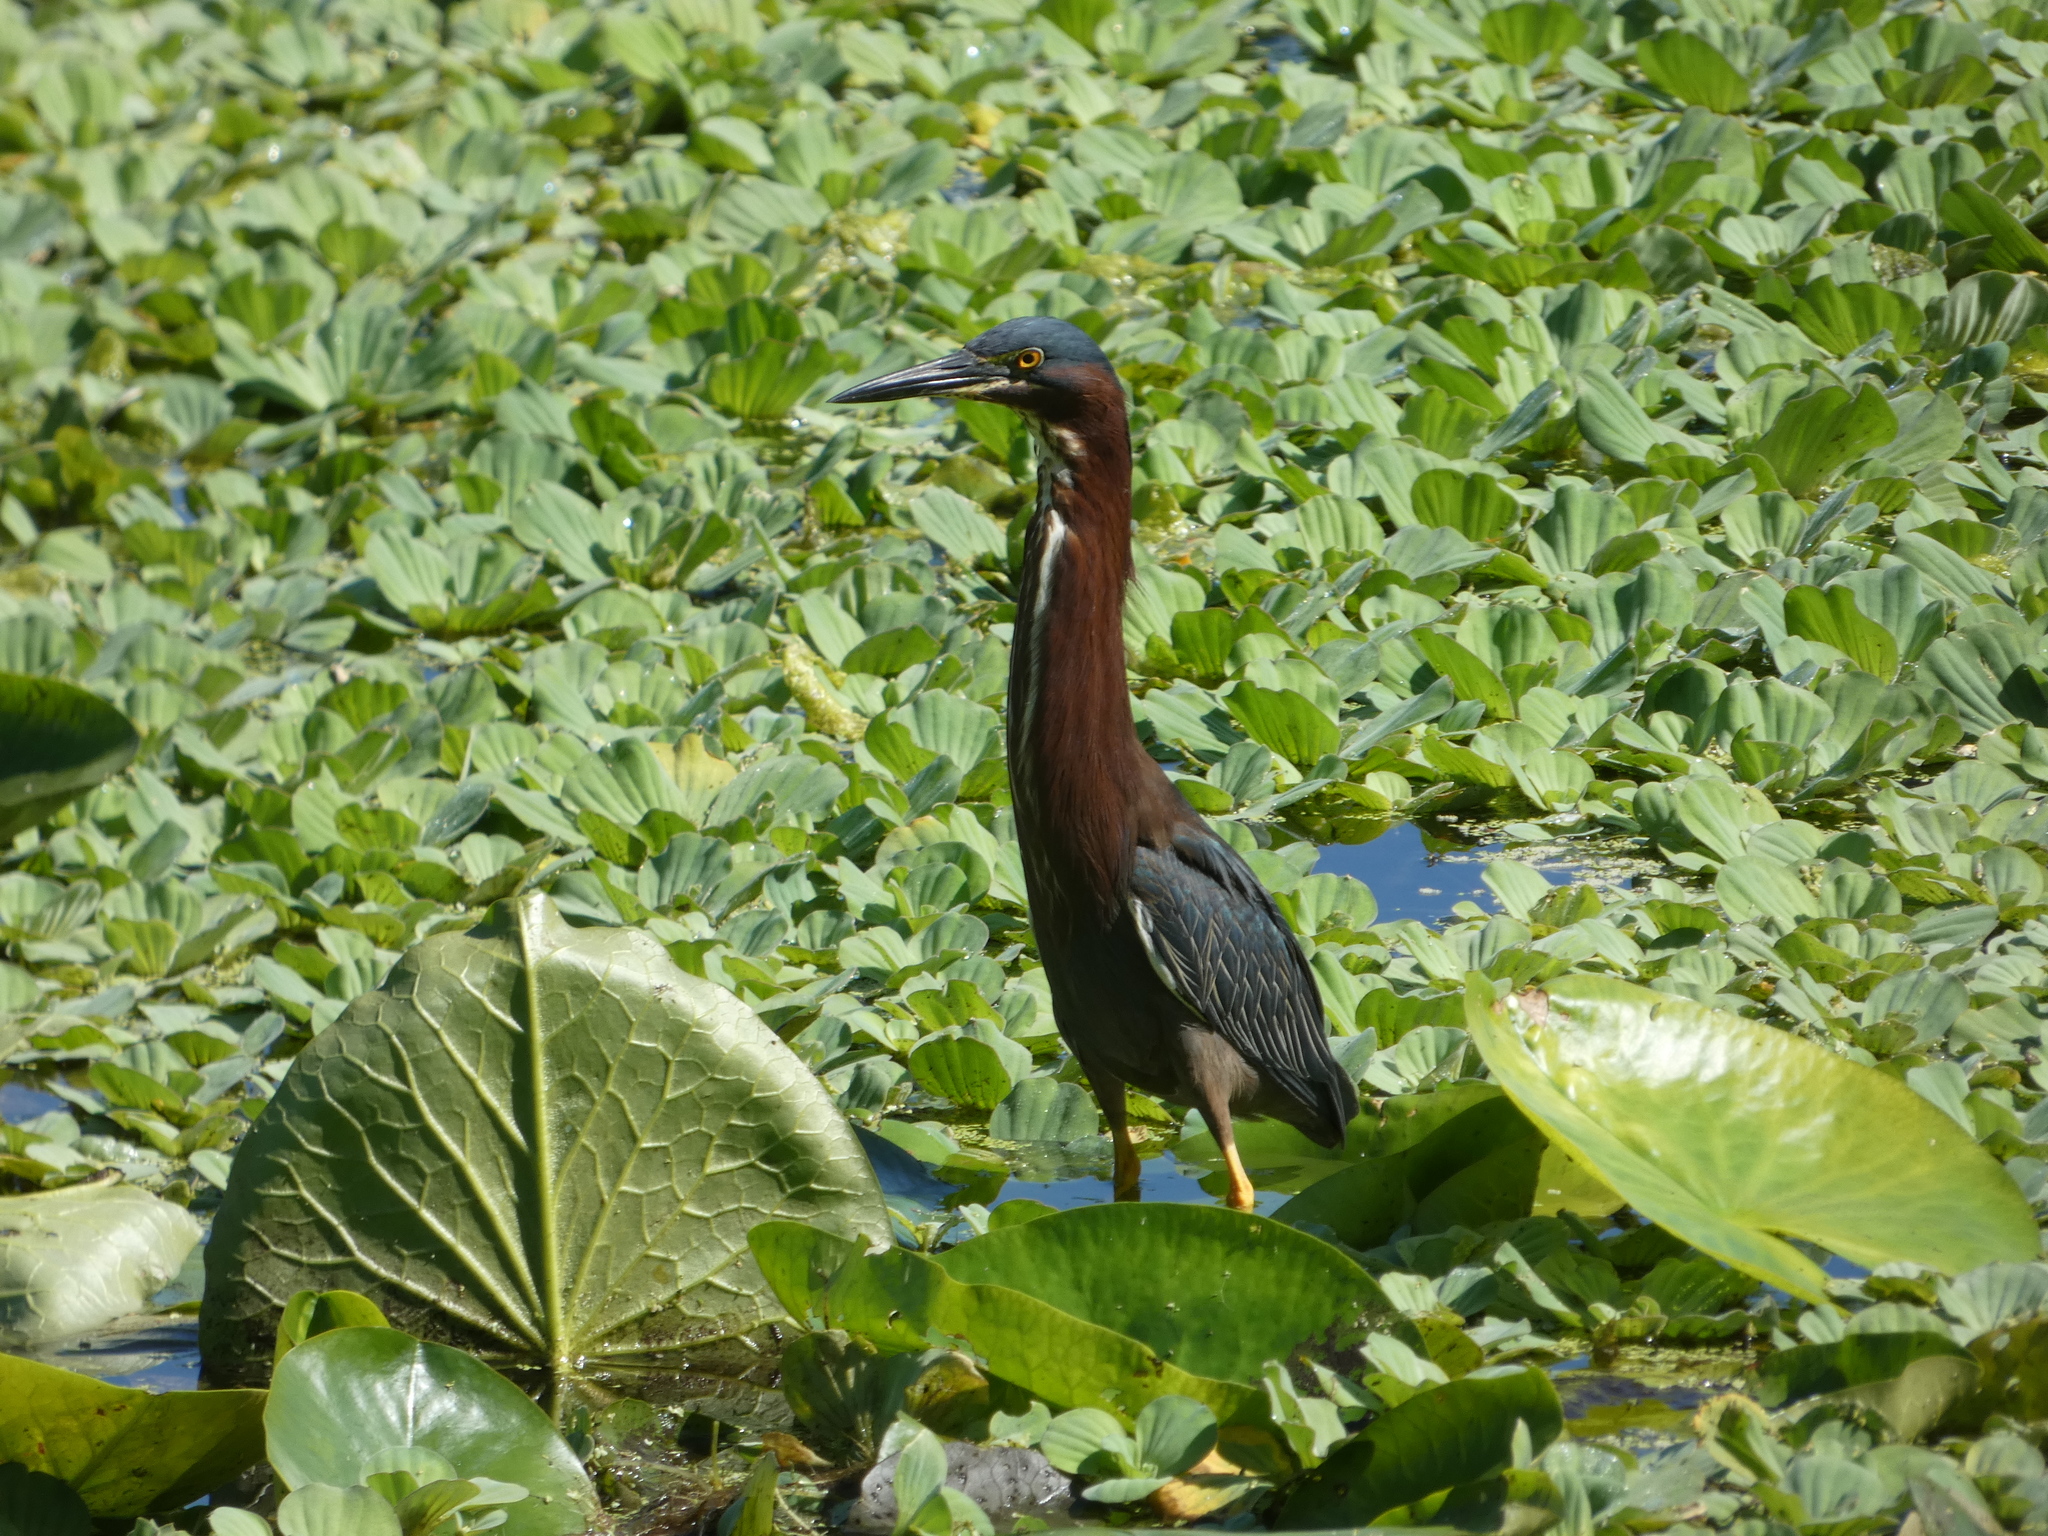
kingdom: Animalia
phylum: Chordata
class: Aves
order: Pelecaniformes
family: Ardeidae
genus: Butorides
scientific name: Butorides virescens
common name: Green heron
